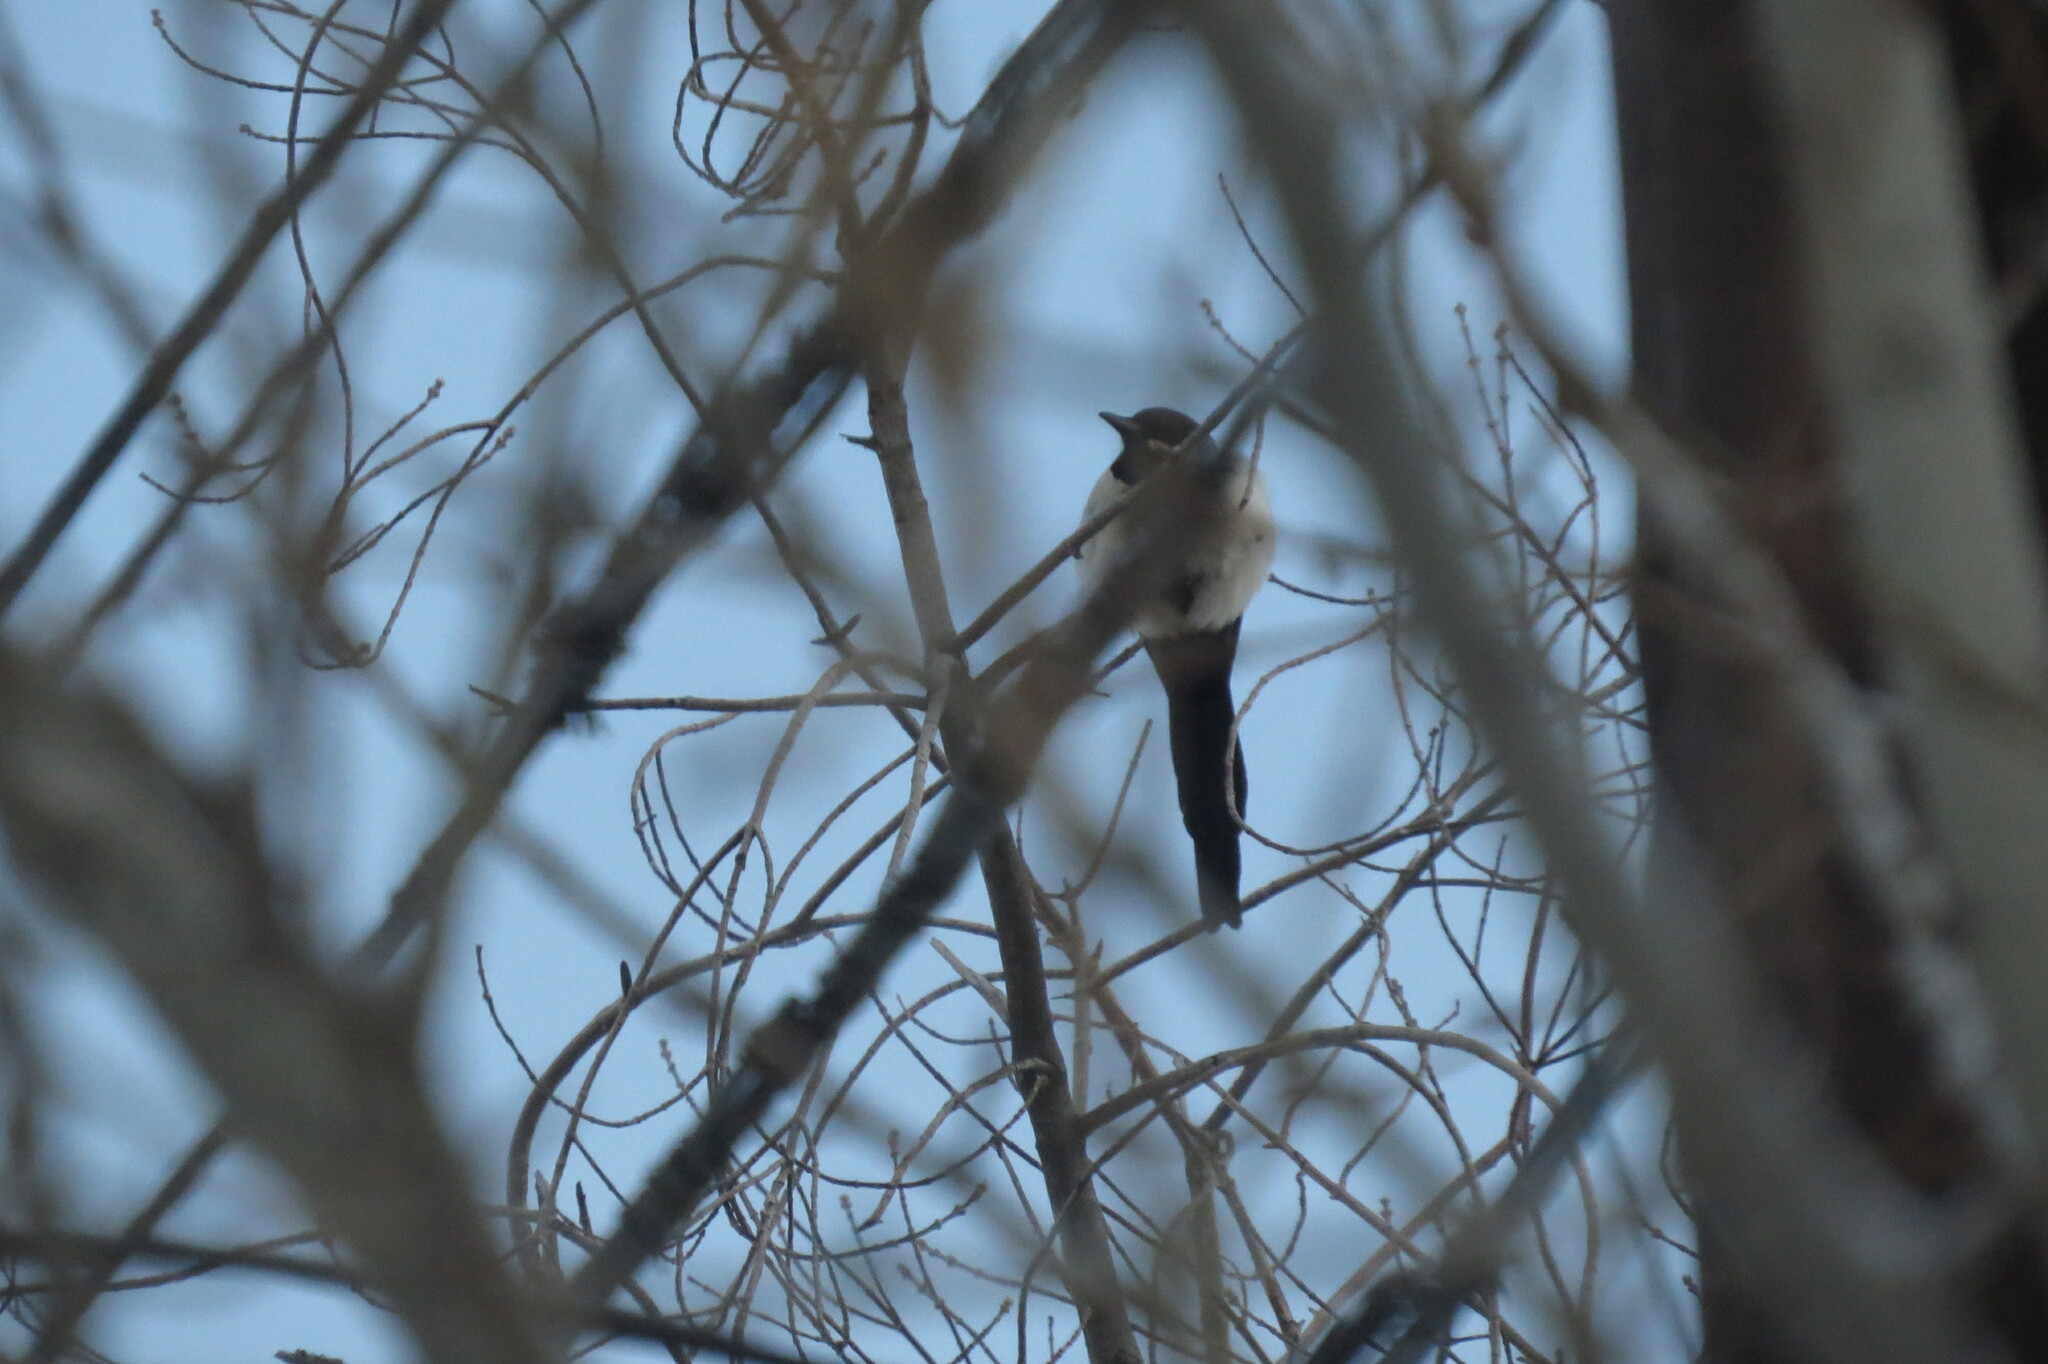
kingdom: Animalia
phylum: Chordata
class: Aves
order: Passeriformes
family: Corvidae
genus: Pica
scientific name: Pica pica
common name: Eurasian magpie
